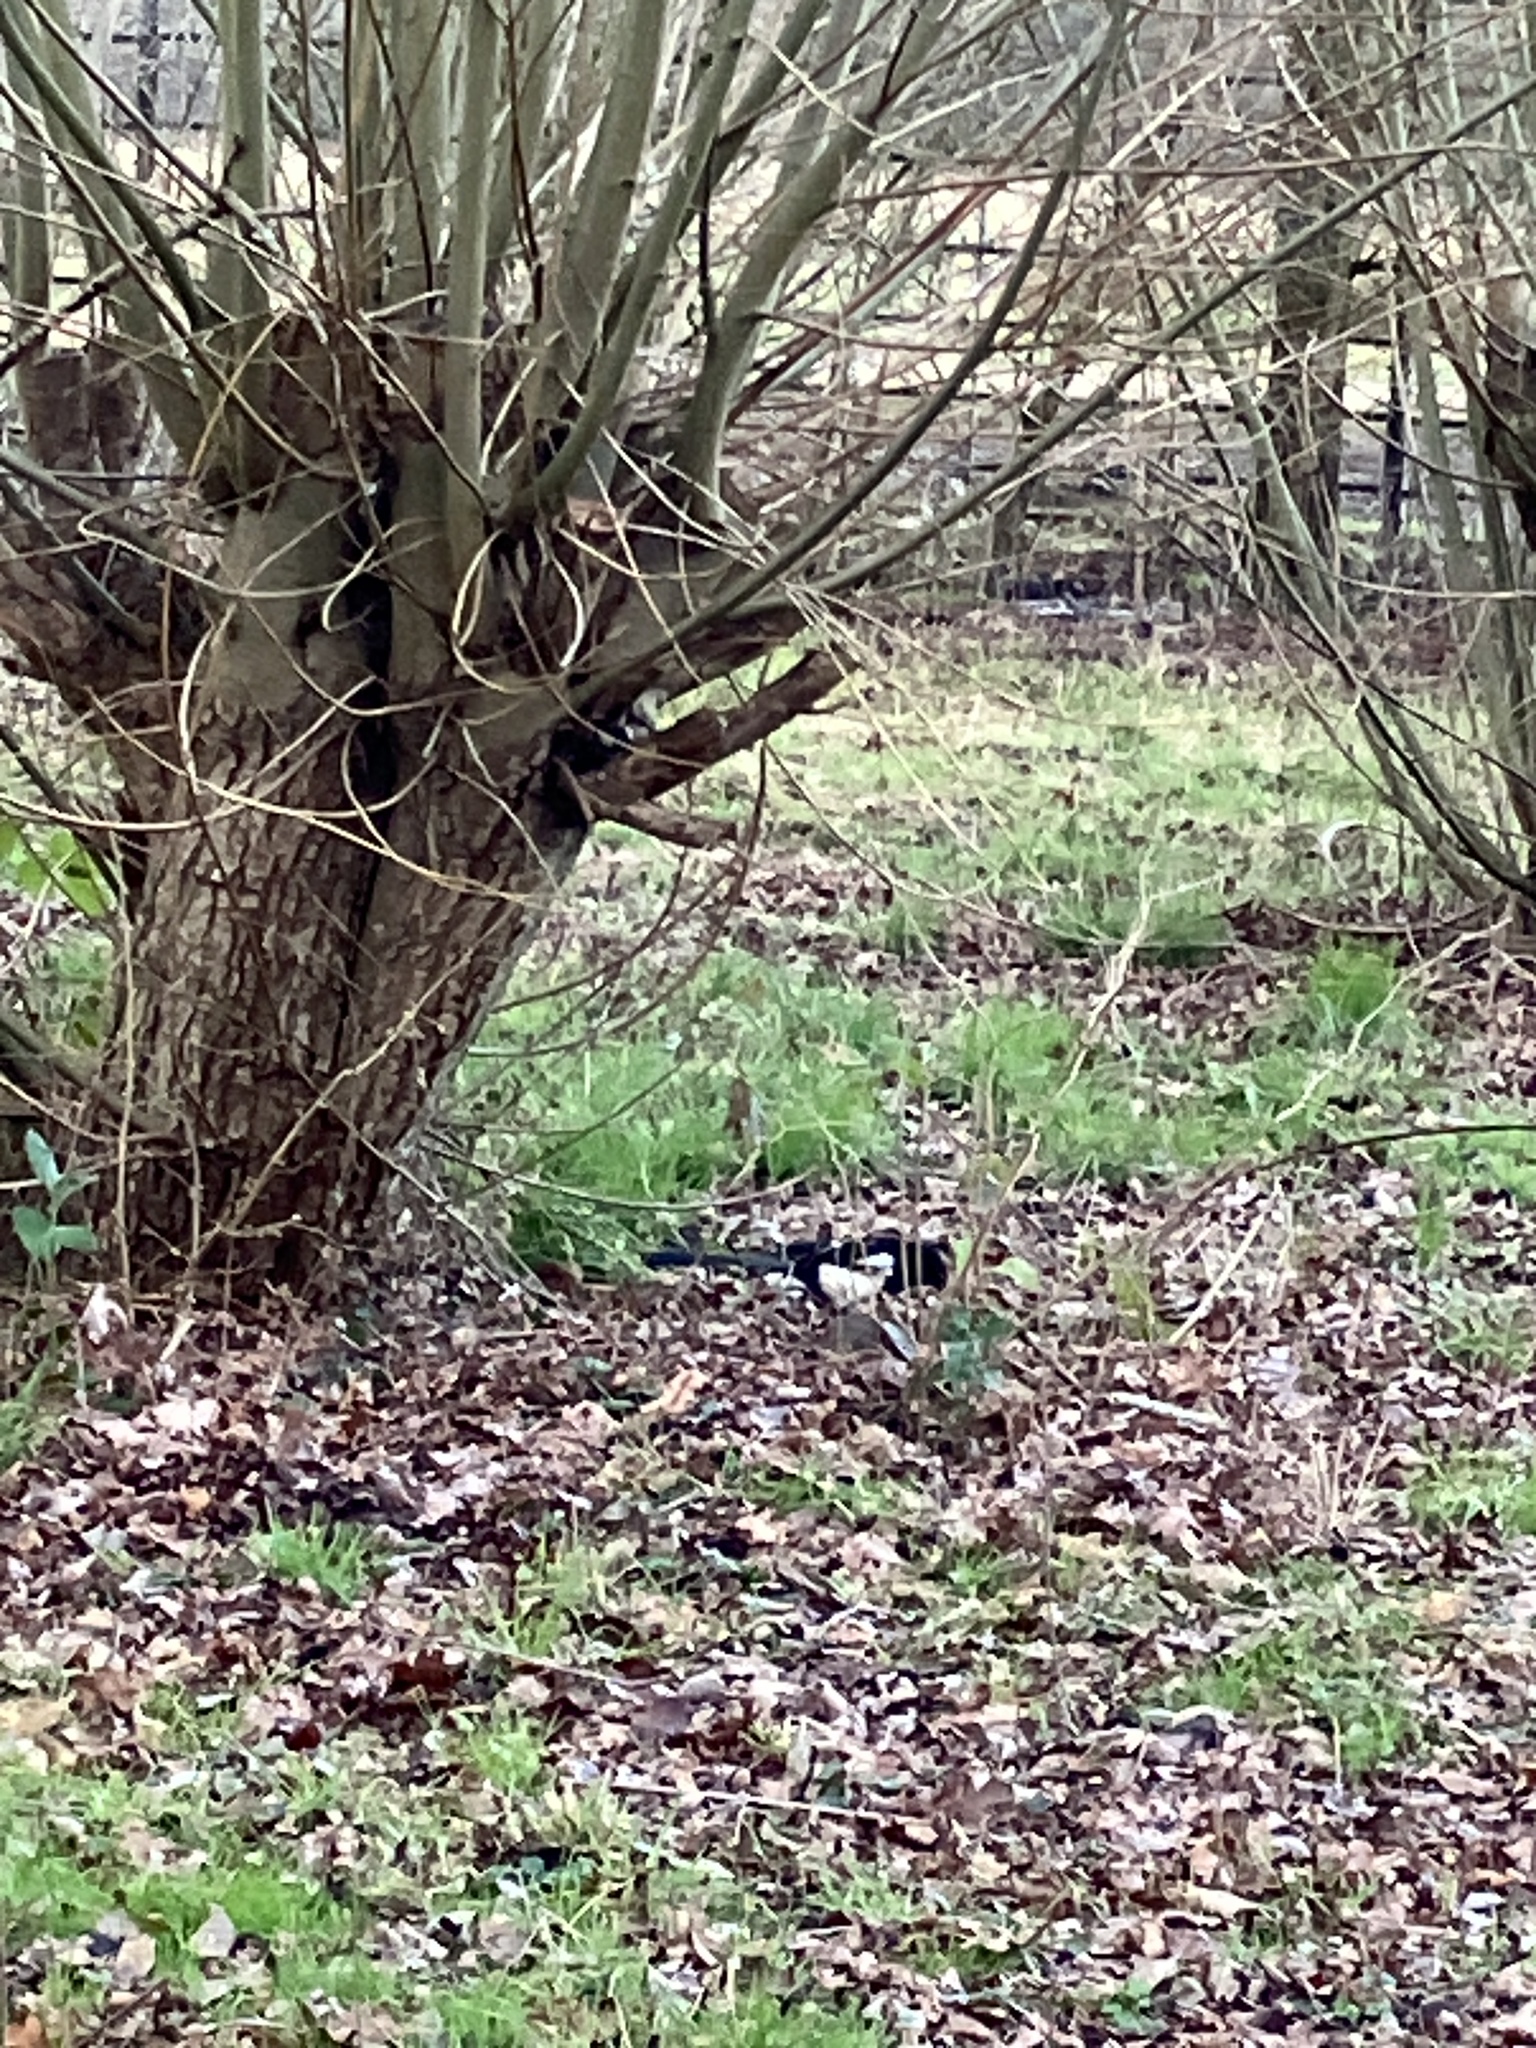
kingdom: Animalia
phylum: Chordata
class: Aves
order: Passeriformes
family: Corvidae
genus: Pica
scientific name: Pica pica
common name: Eurasian magpie
